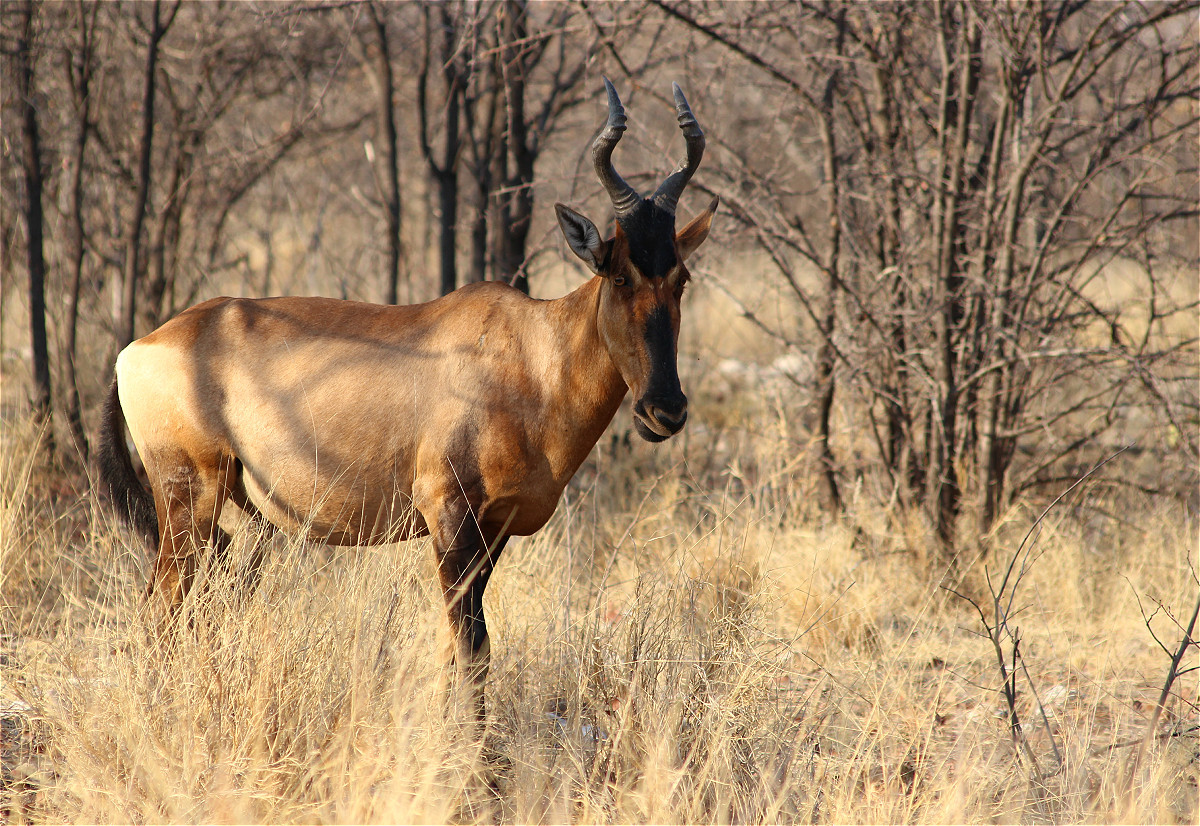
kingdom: Animalia
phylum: Chordata
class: Mammalia
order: Artiodactyla
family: Bovidae
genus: Alcelaphus
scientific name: Alcelaphus caama
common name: Red hartebeest
